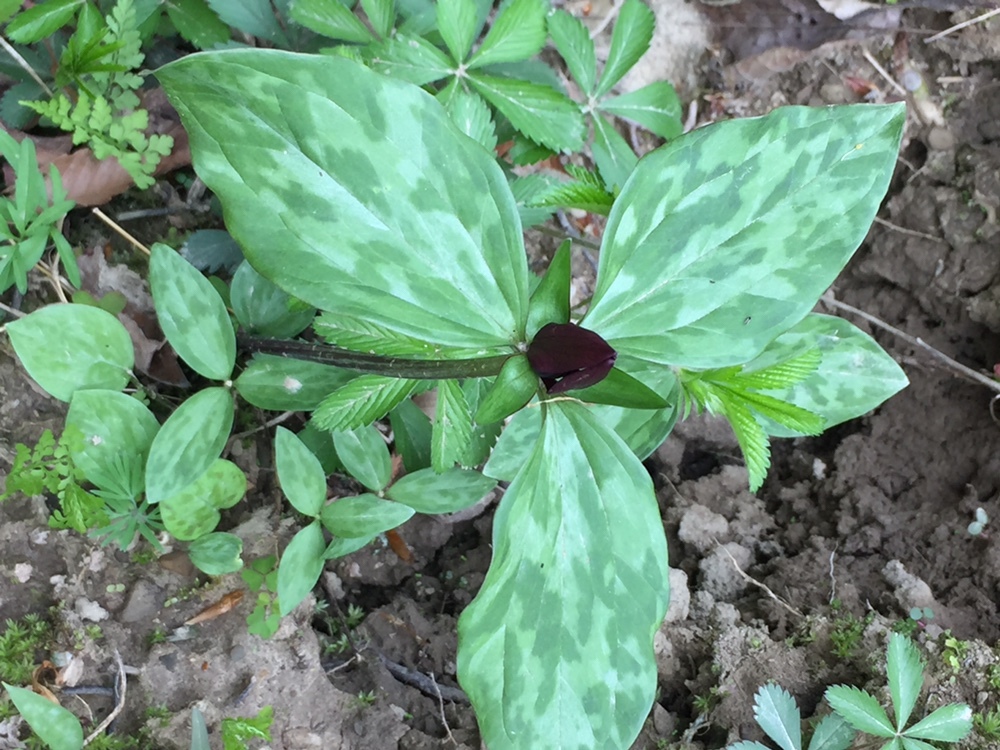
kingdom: Plantae
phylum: Tracheophyta
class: Liliopsida
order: Liliales
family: Melanthiaceae
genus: Trillium
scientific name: Trillium recurvatum
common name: Bloody butcher
